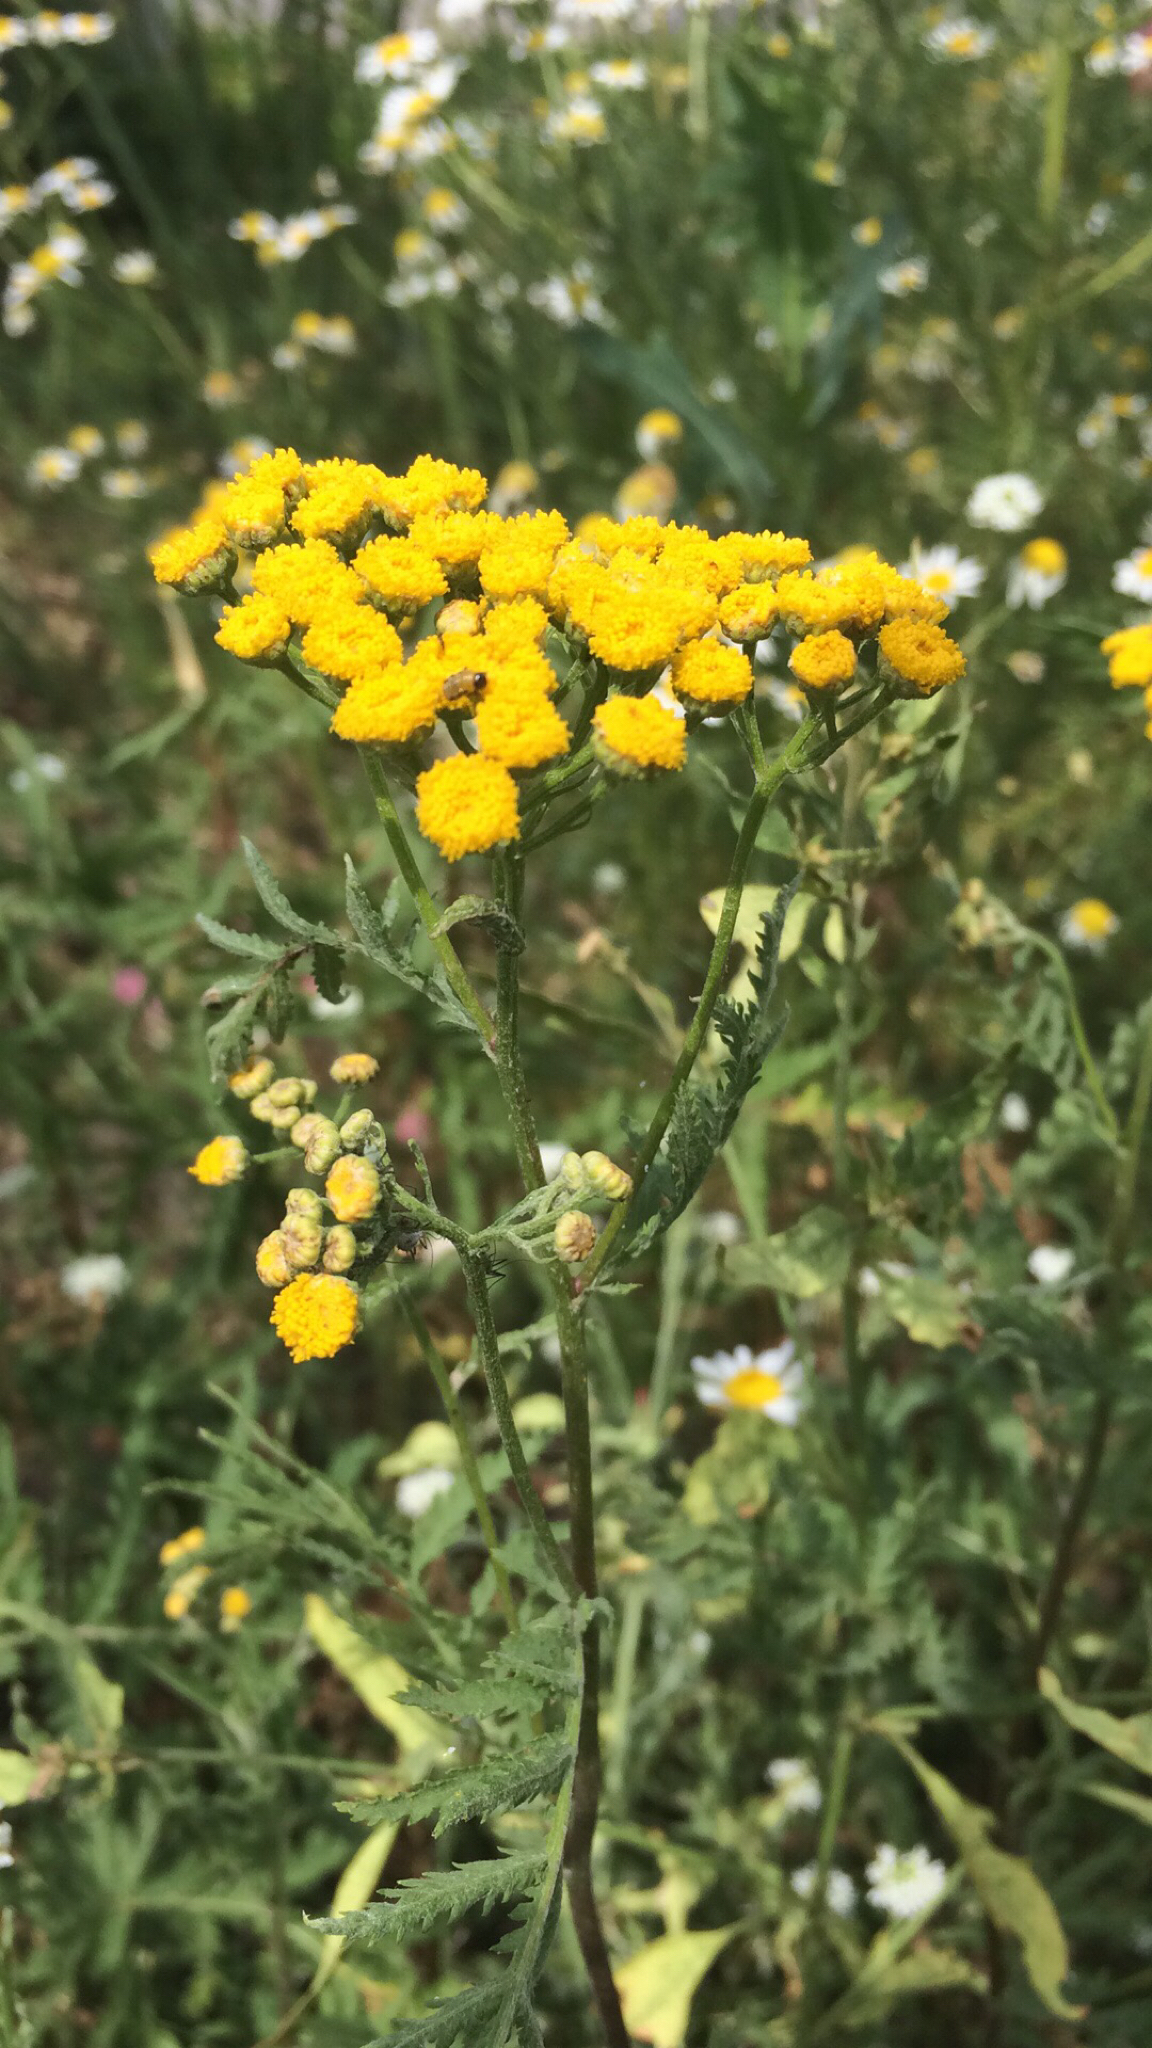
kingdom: Plantae
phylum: Tracheophyta
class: Magnoliopsida
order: Asterales
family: Asteraceae
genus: Tanacetum
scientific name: Tanacetum vulgare
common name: Common tansy
